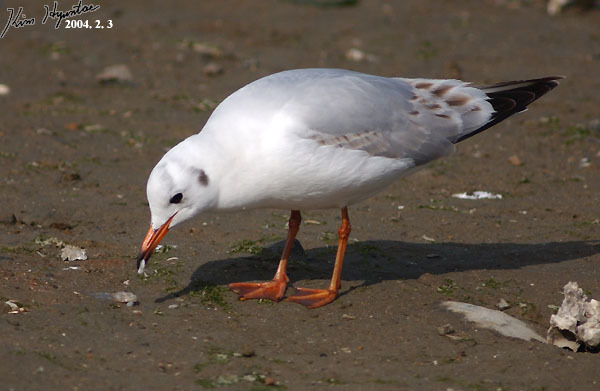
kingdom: Animalia
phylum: Chordata
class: Aves
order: Charadriiformes
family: Laridae
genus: Chroicocephalus
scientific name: Chroicocephalus ridibundus
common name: Black-headed gull
